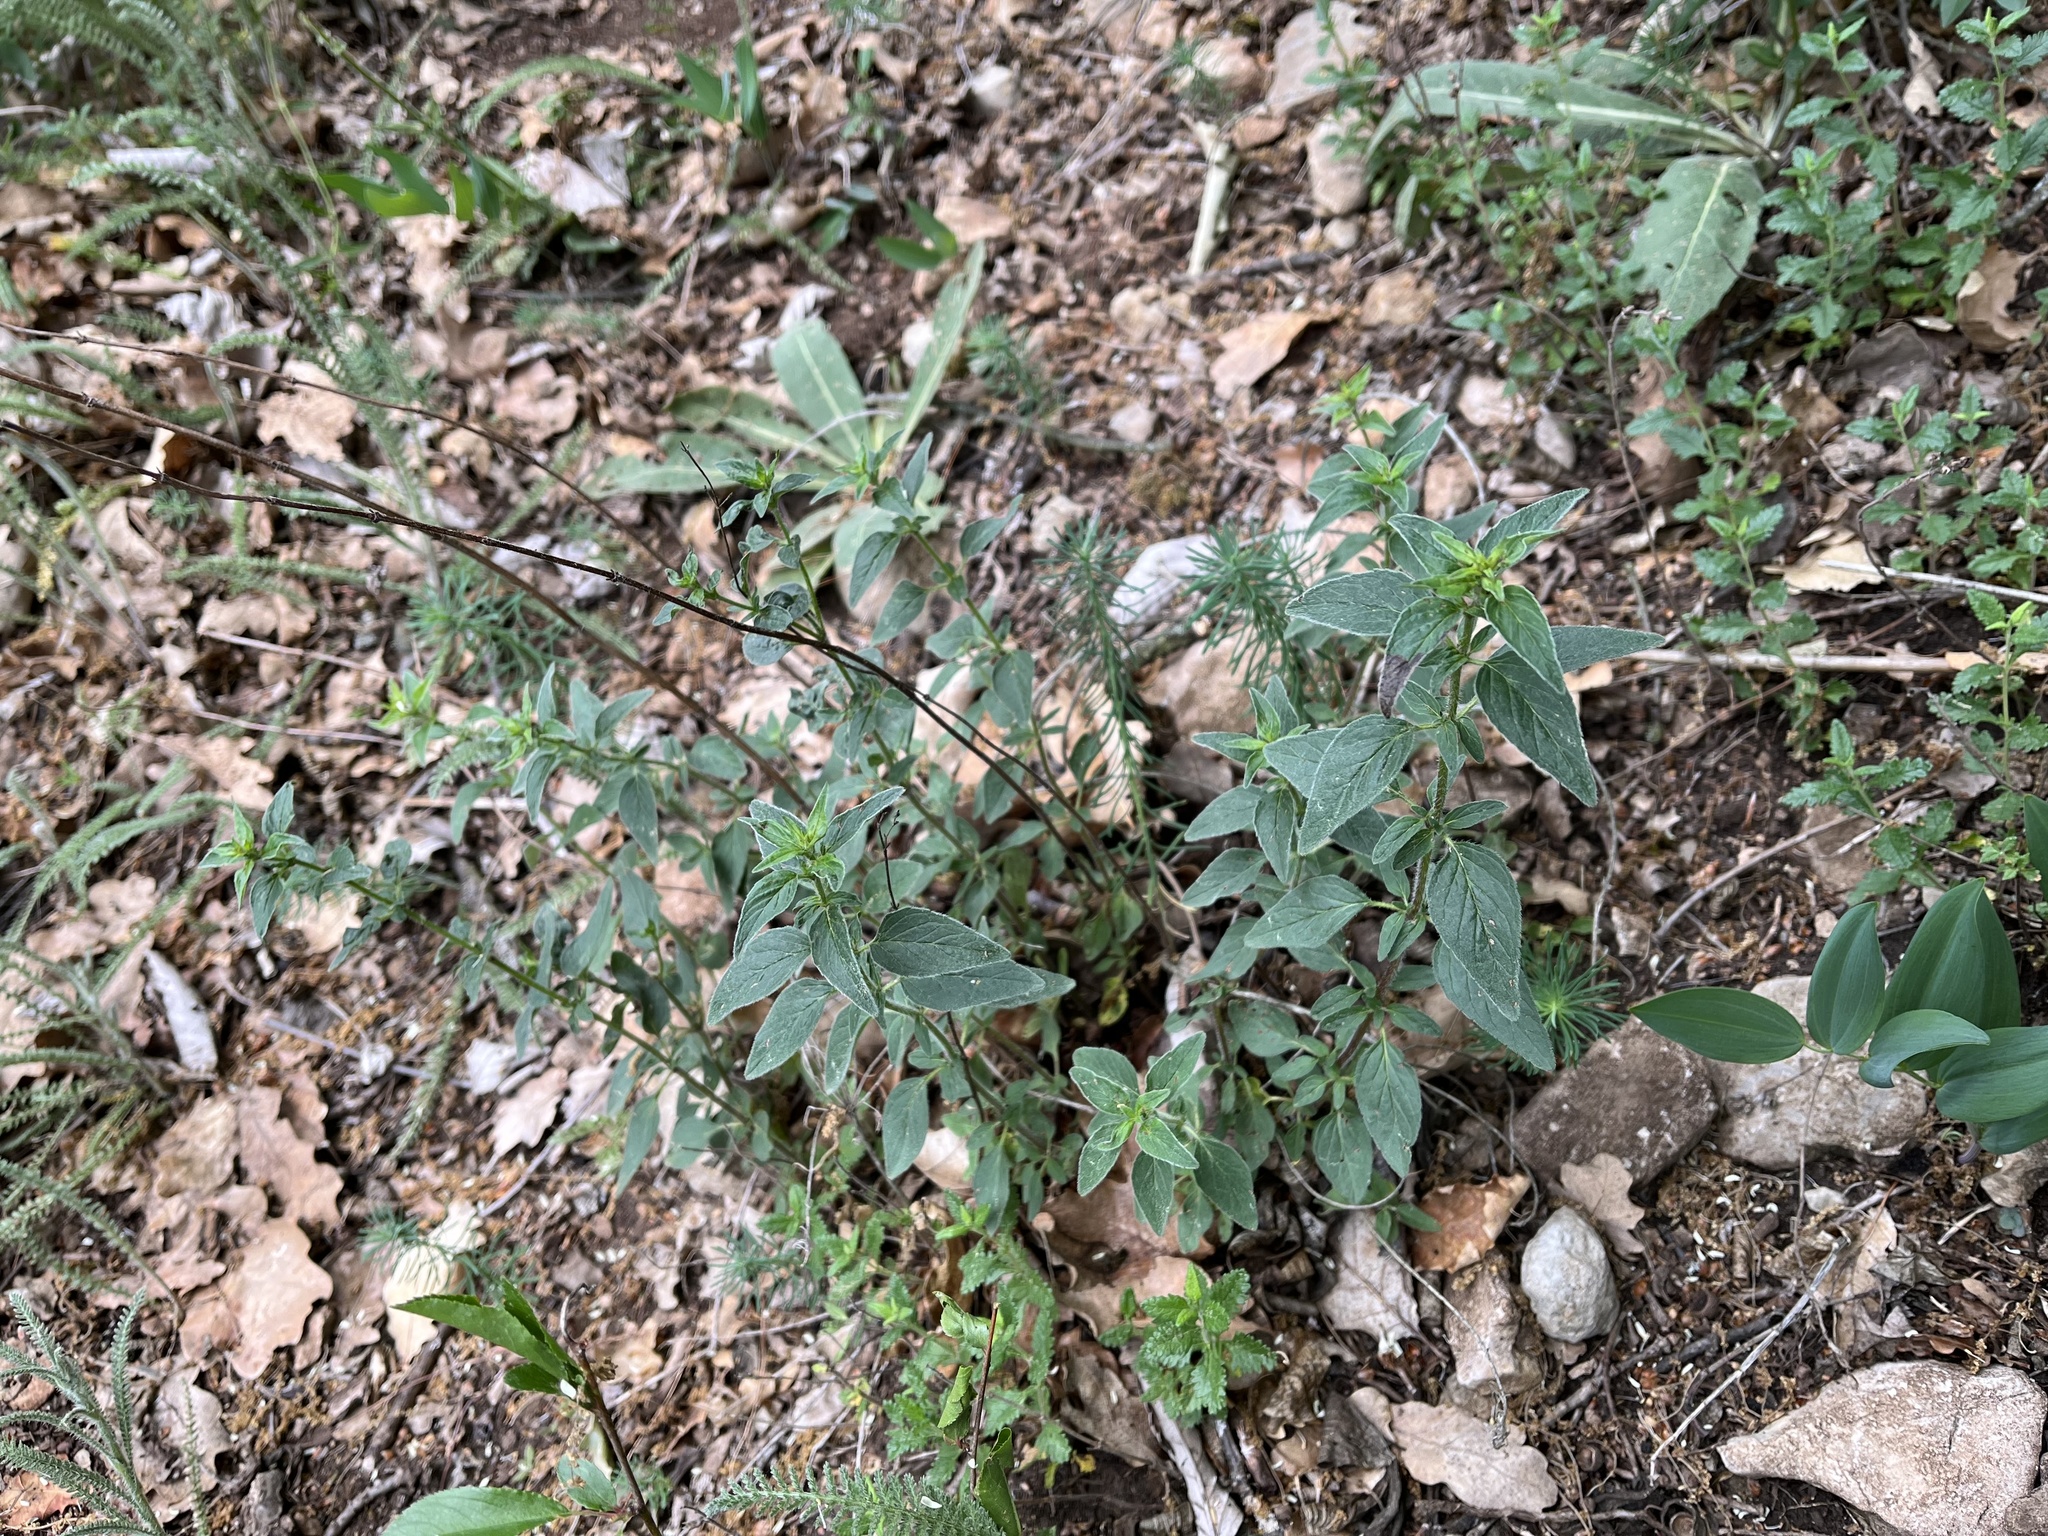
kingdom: Plantae
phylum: Tracheophyta
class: Magnoliopsida
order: Lamiales
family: Lamiaceae
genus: Origanum
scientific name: Origanum vulgare
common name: Wild marjoram
